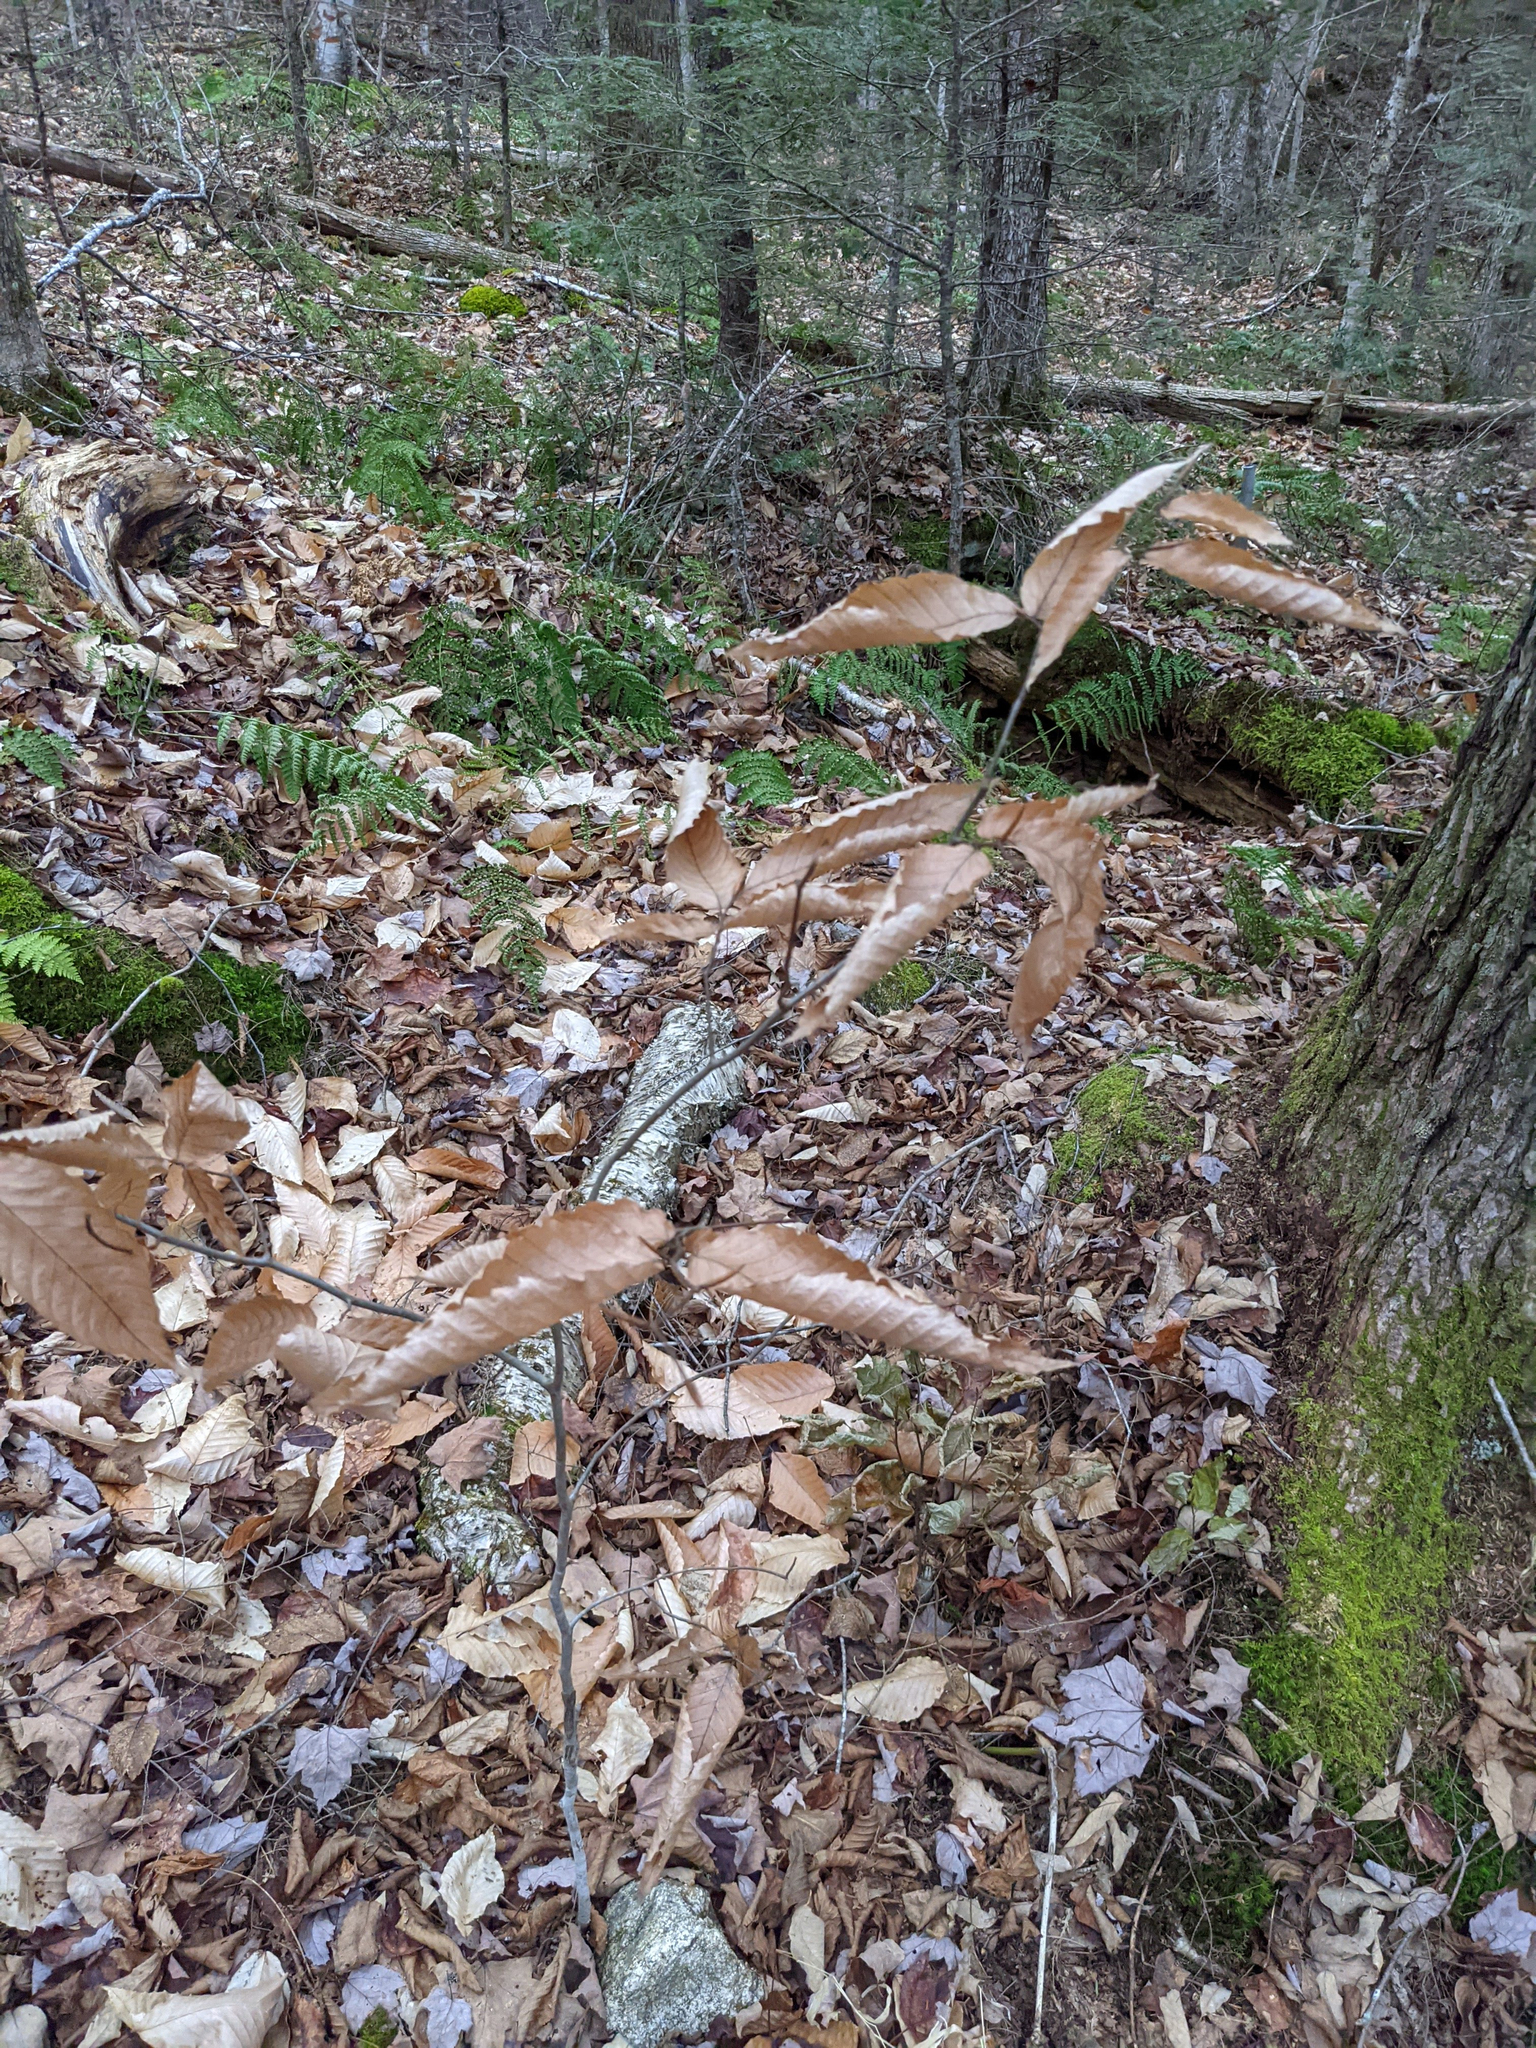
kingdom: Plantae
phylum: Tracheophyta
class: Magnoliopsida
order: Fagales
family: Fagaceae
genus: Fagus
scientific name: Fagus grandifolia
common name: American beech
